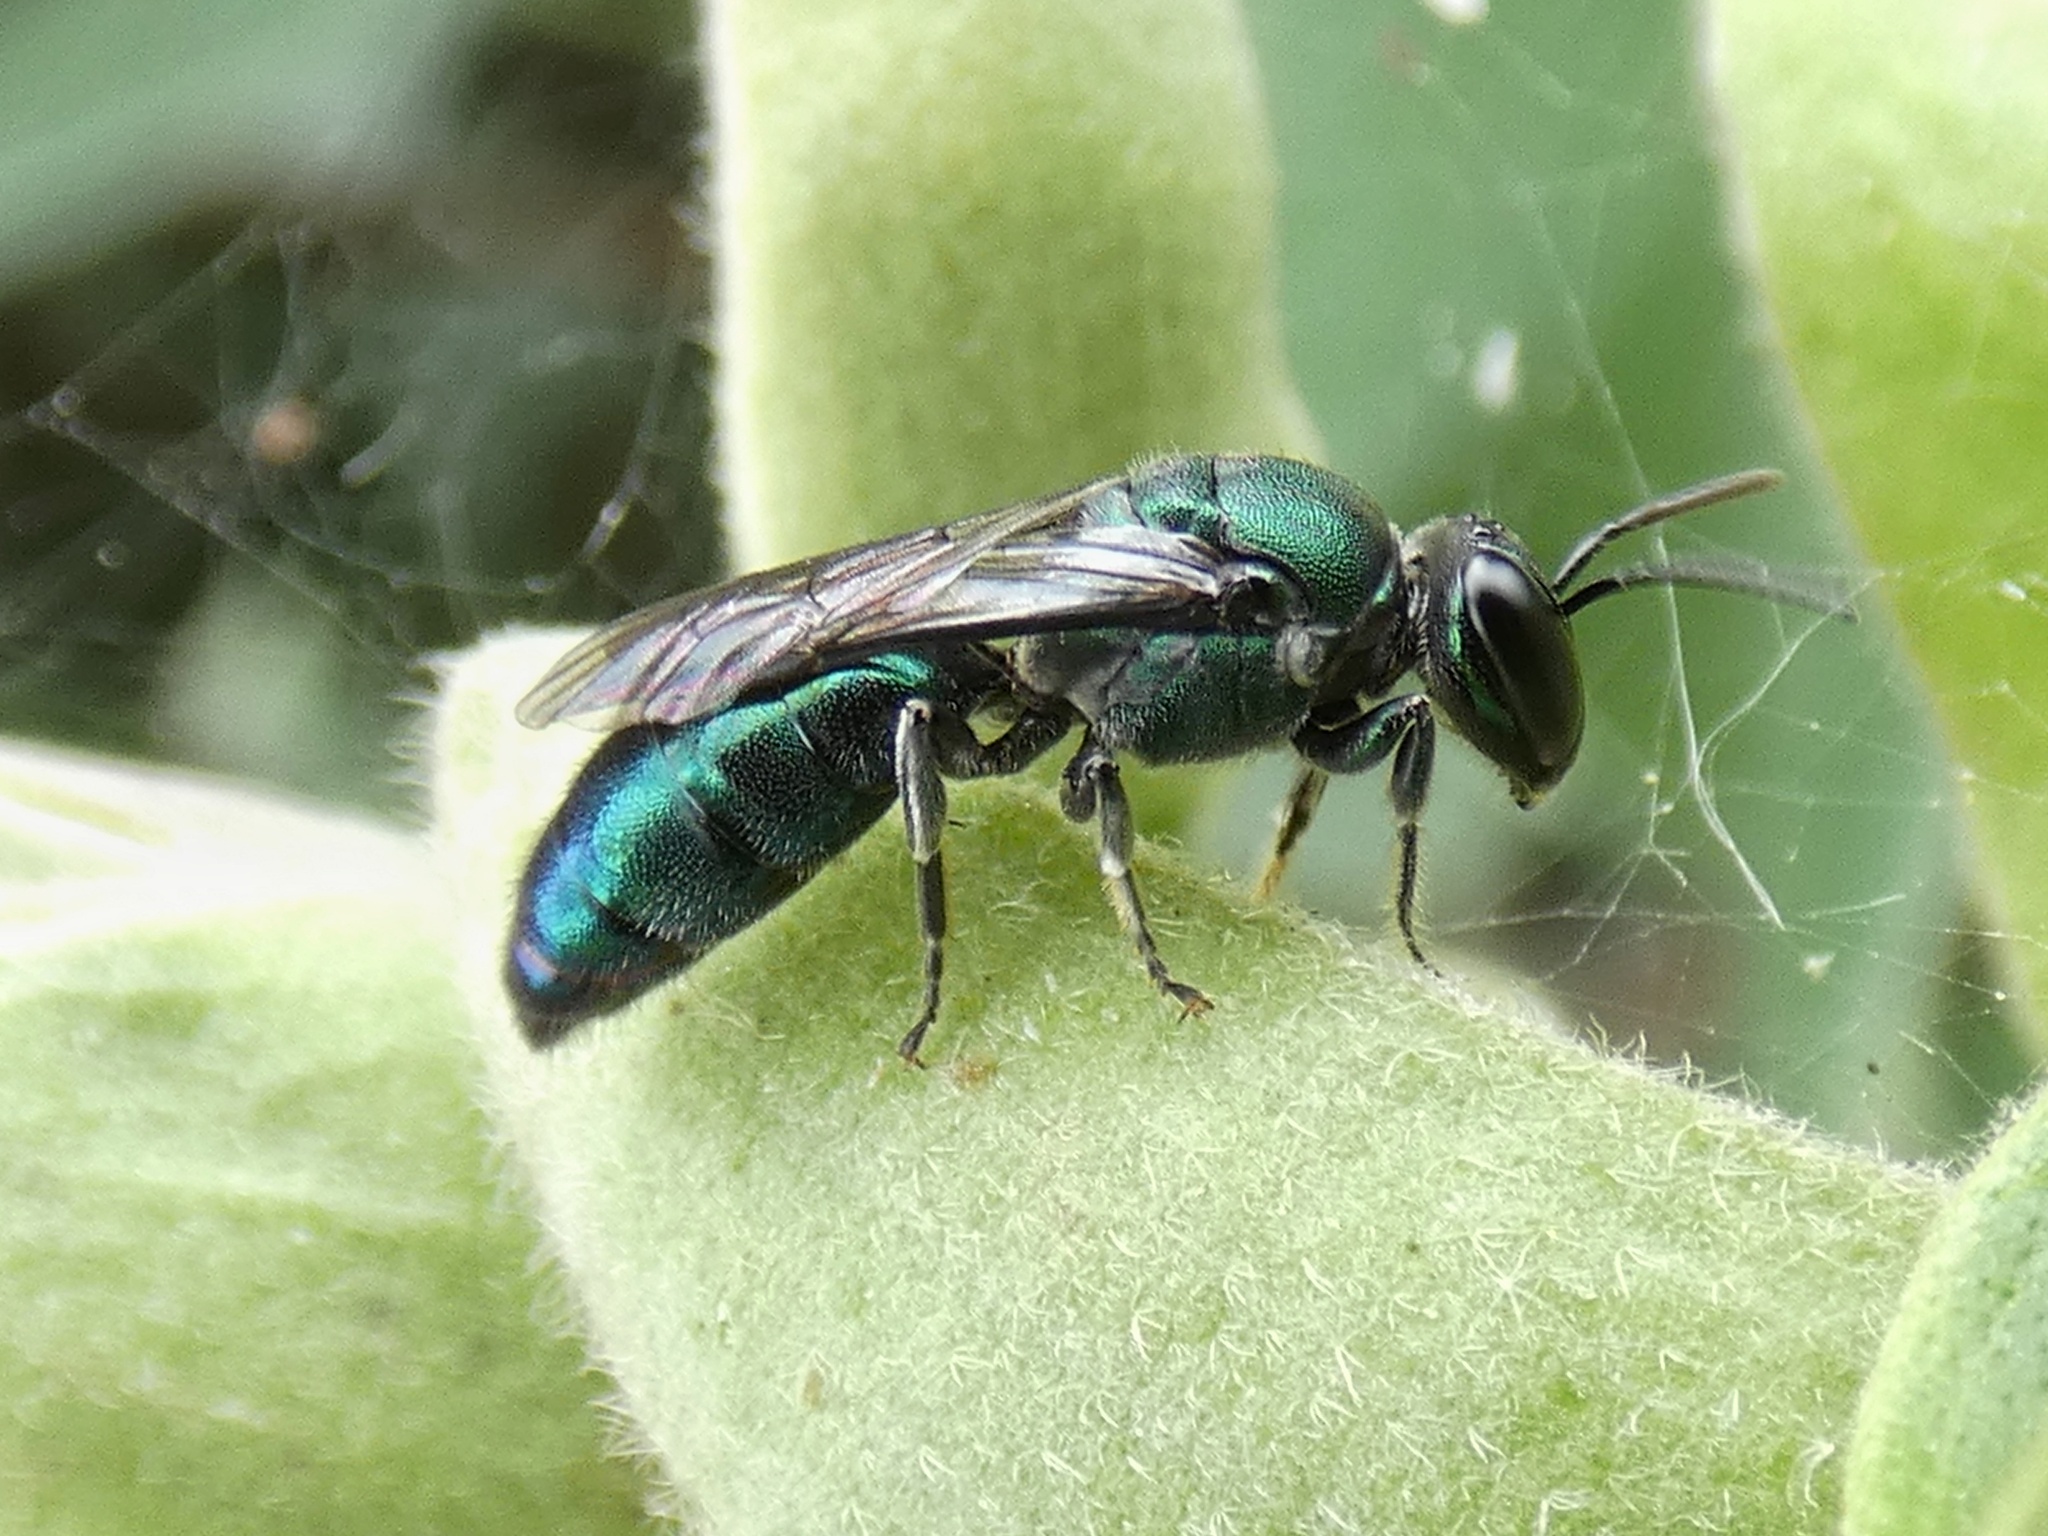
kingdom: Animalia
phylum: Arthropoda
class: Insecta
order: Hymenoptera
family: Colletidae
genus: Palaeorhiza
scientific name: Palaeorhiza turneriana
